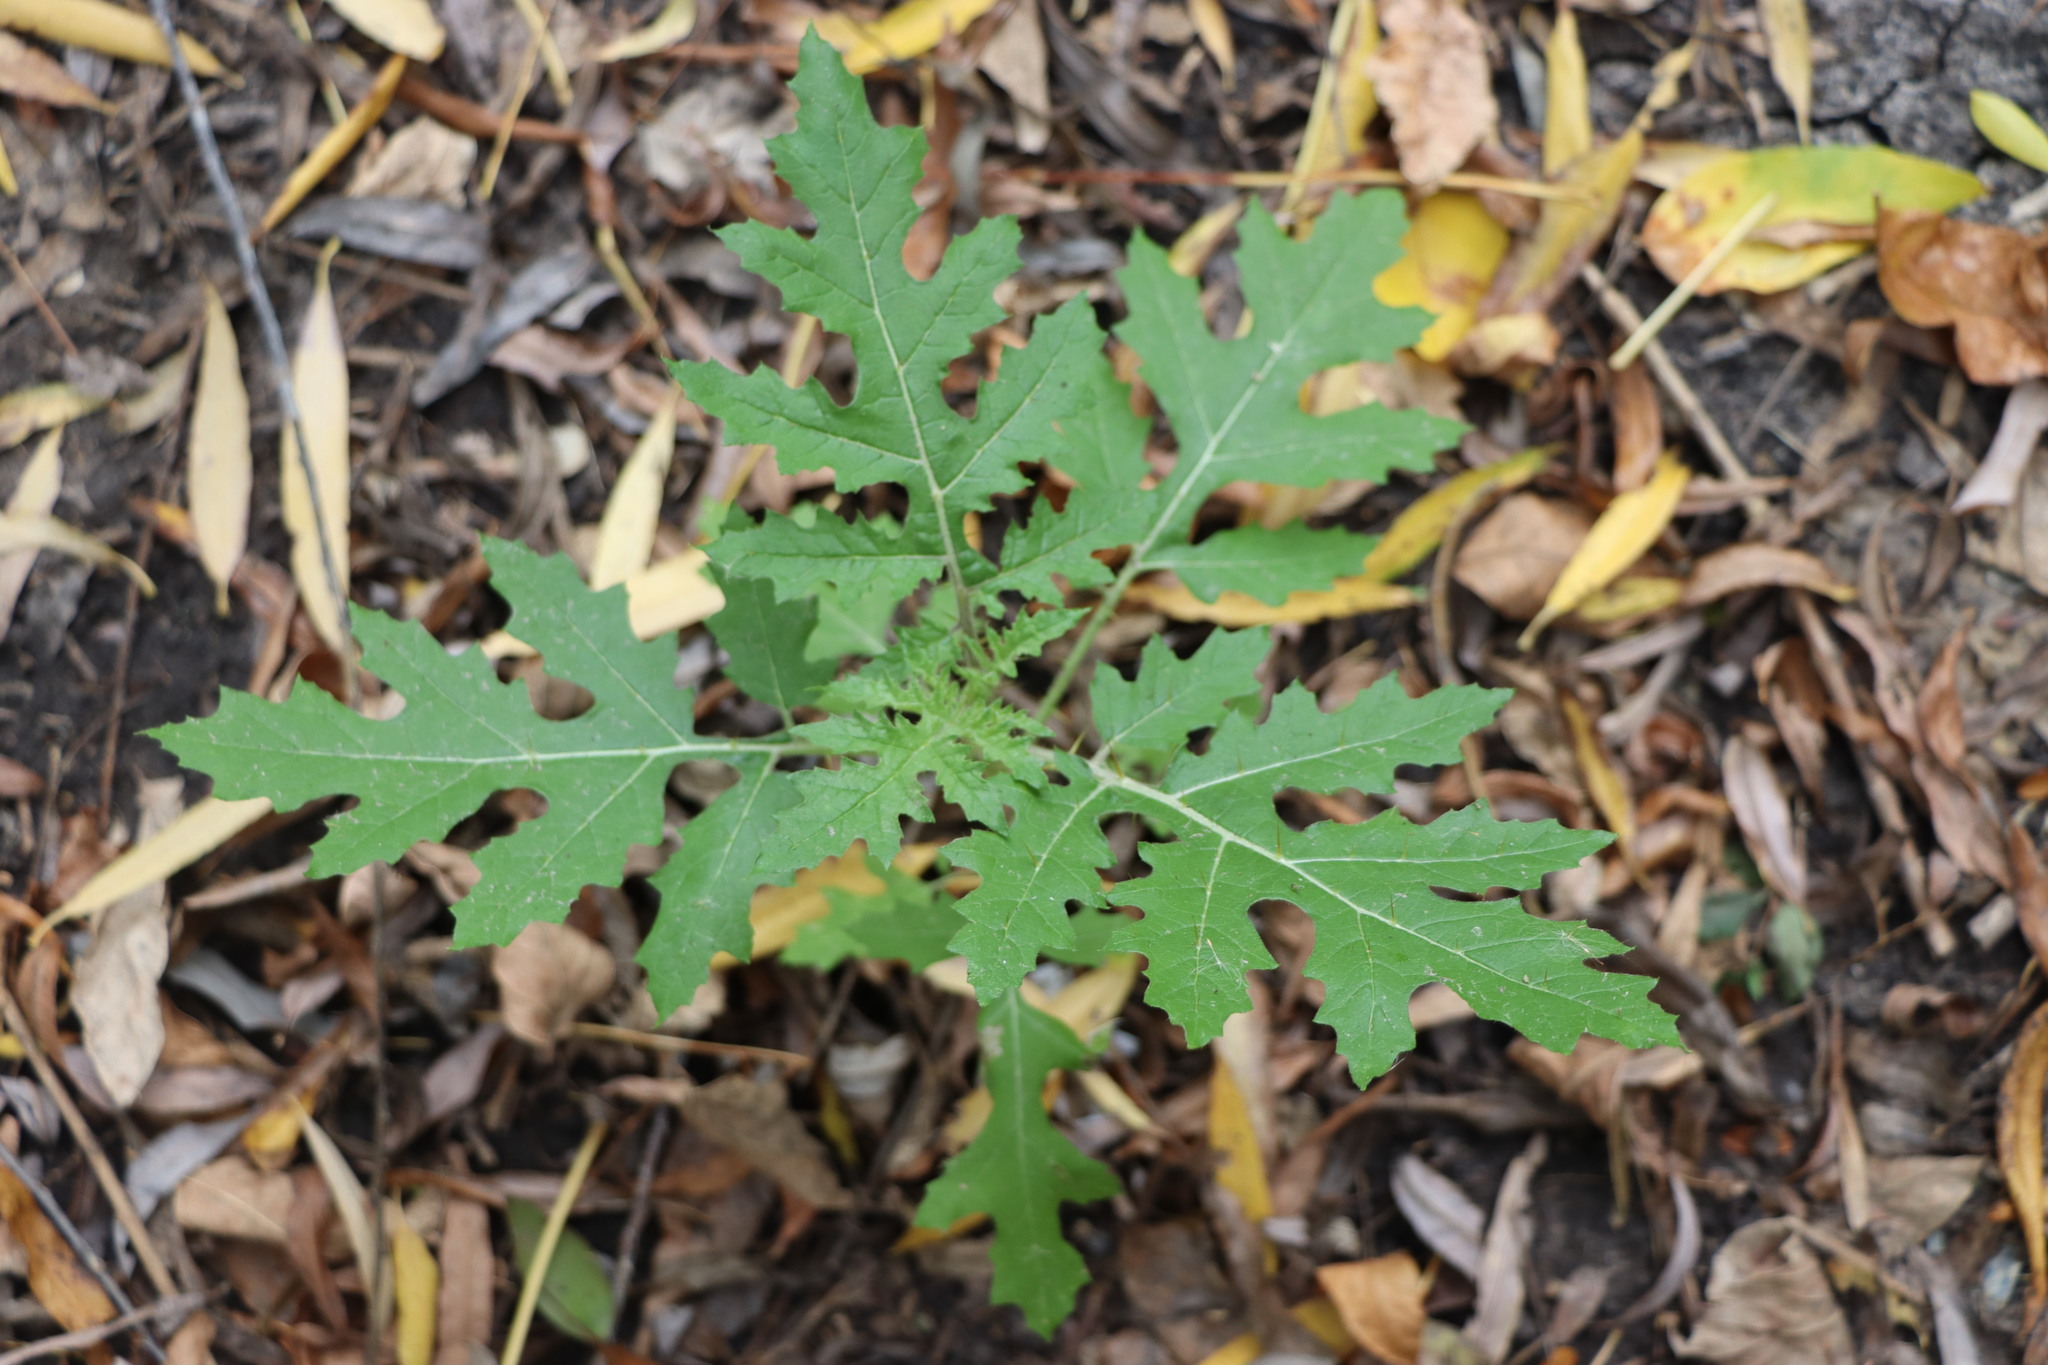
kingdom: Plantae
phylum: Tracheophyta
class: Magnoliopsida
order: Solanales
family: Solanaceae
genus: Solanum
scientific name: Solanum sisymbriifolium
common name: Red buffalo-bur
